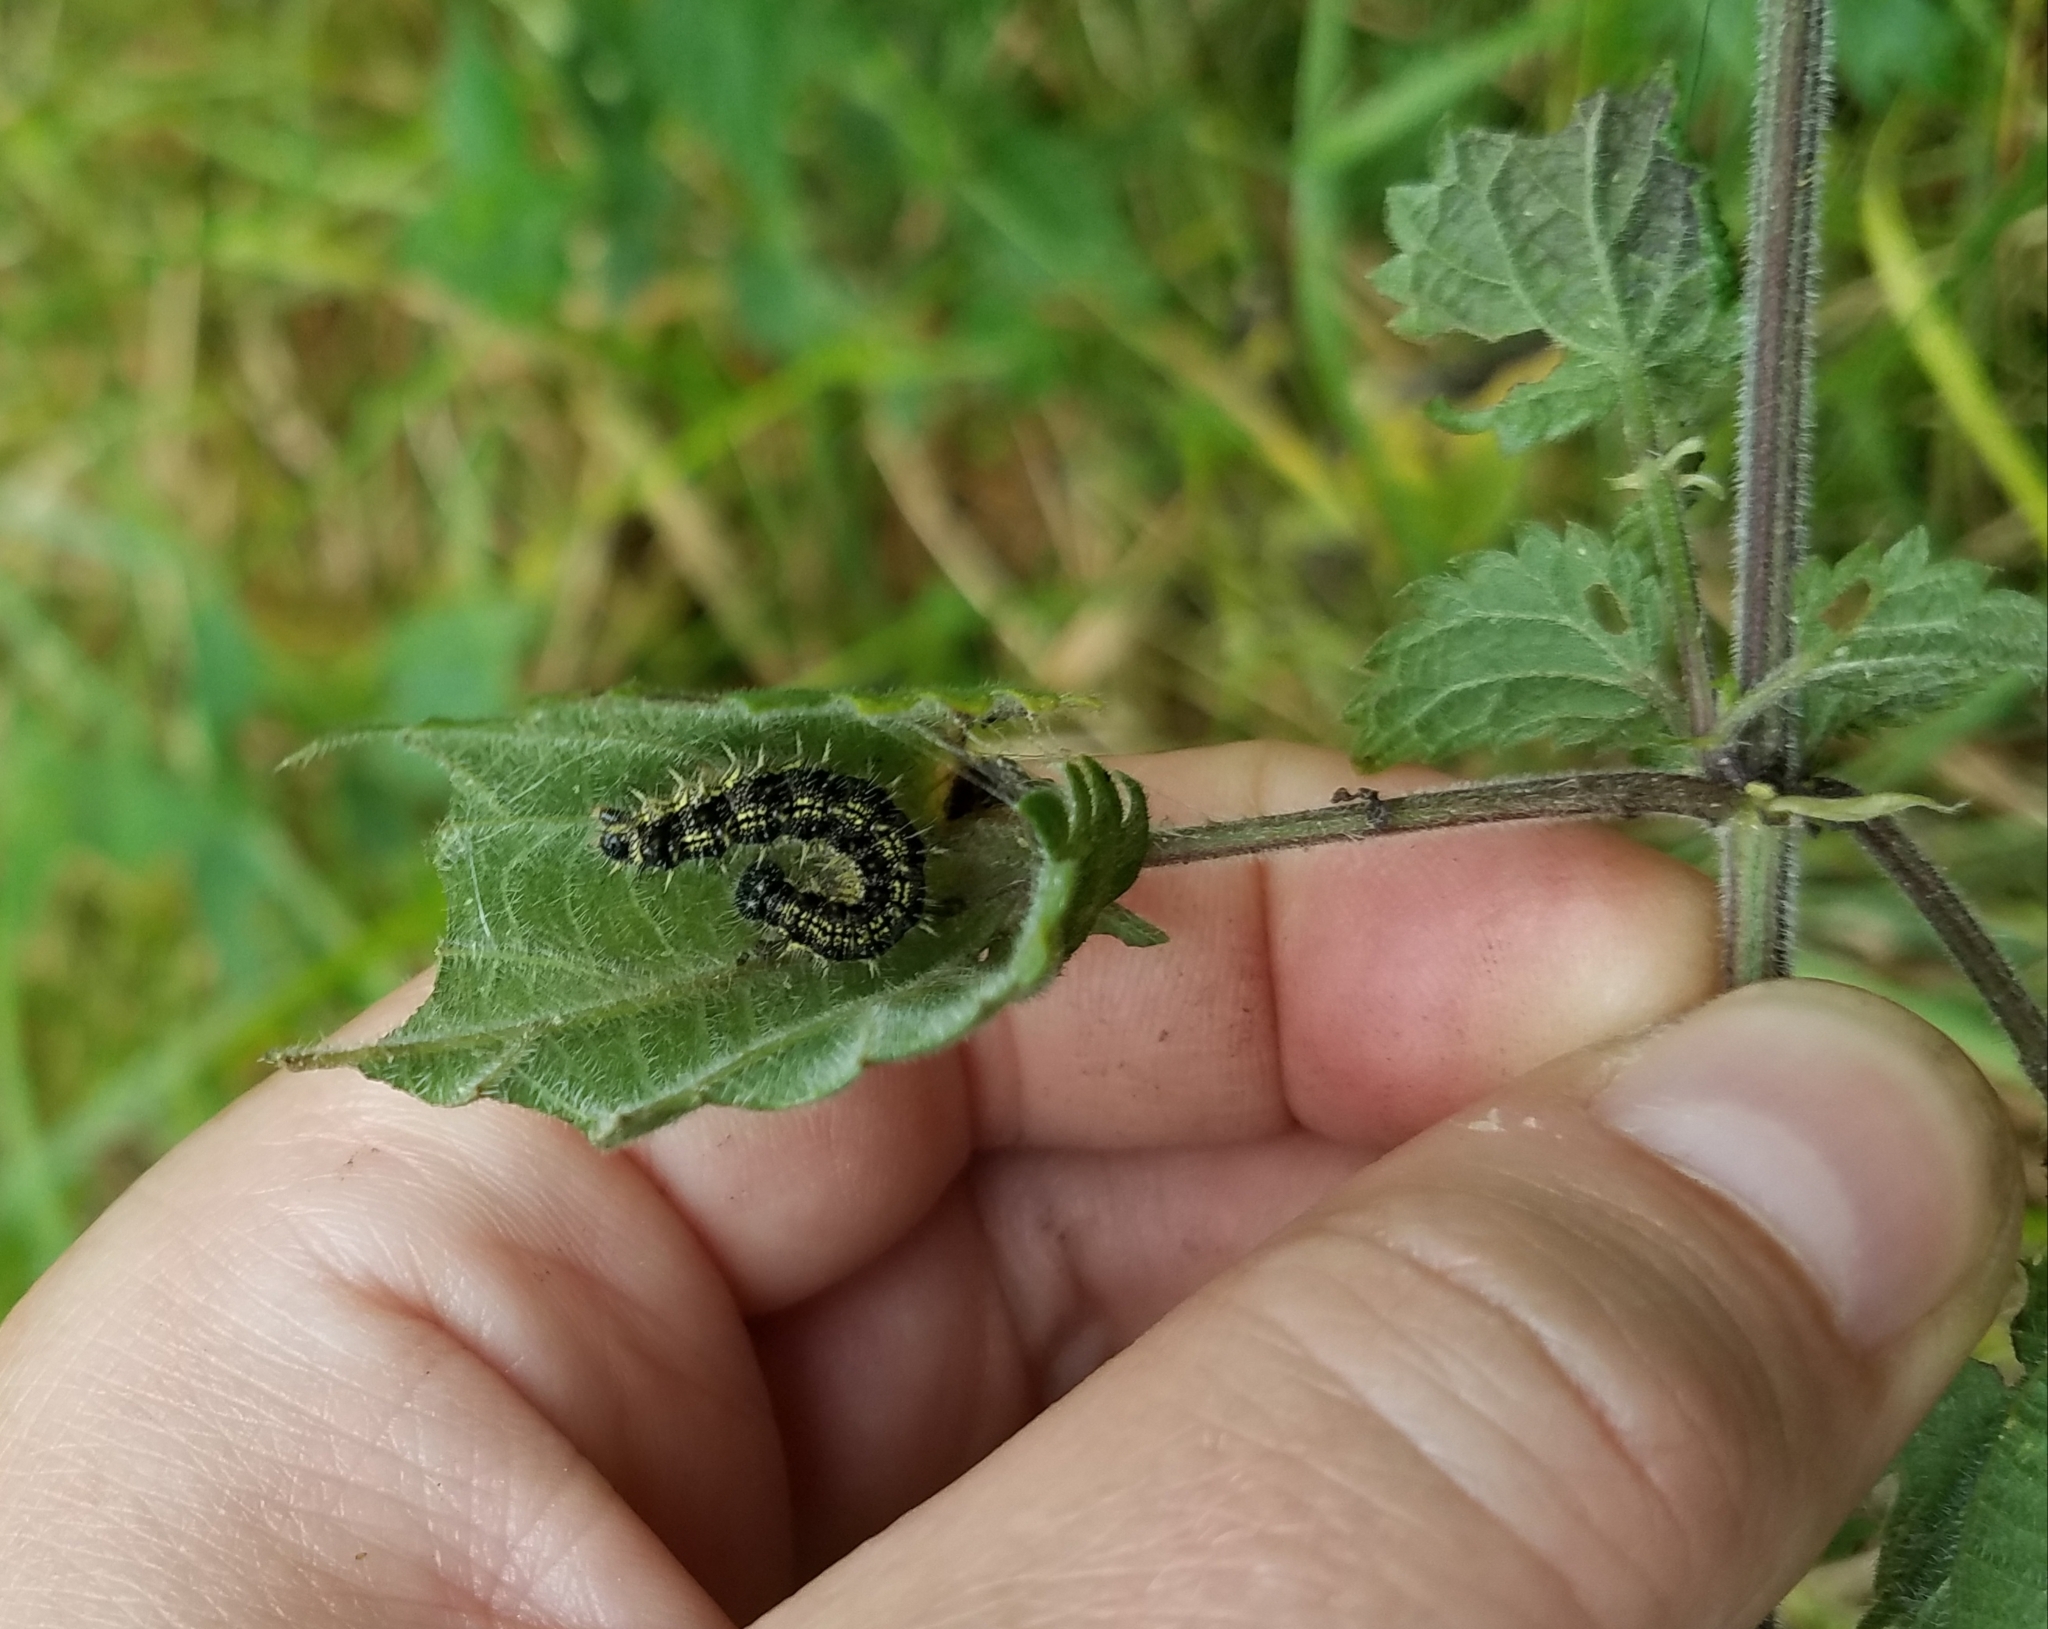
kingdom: Animalia
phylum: Arthropoda
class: Insecta
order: Lepidoptera
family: Nymphalidae
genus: Vanessa
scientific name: Vanessa atalanta
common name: Red admiral
